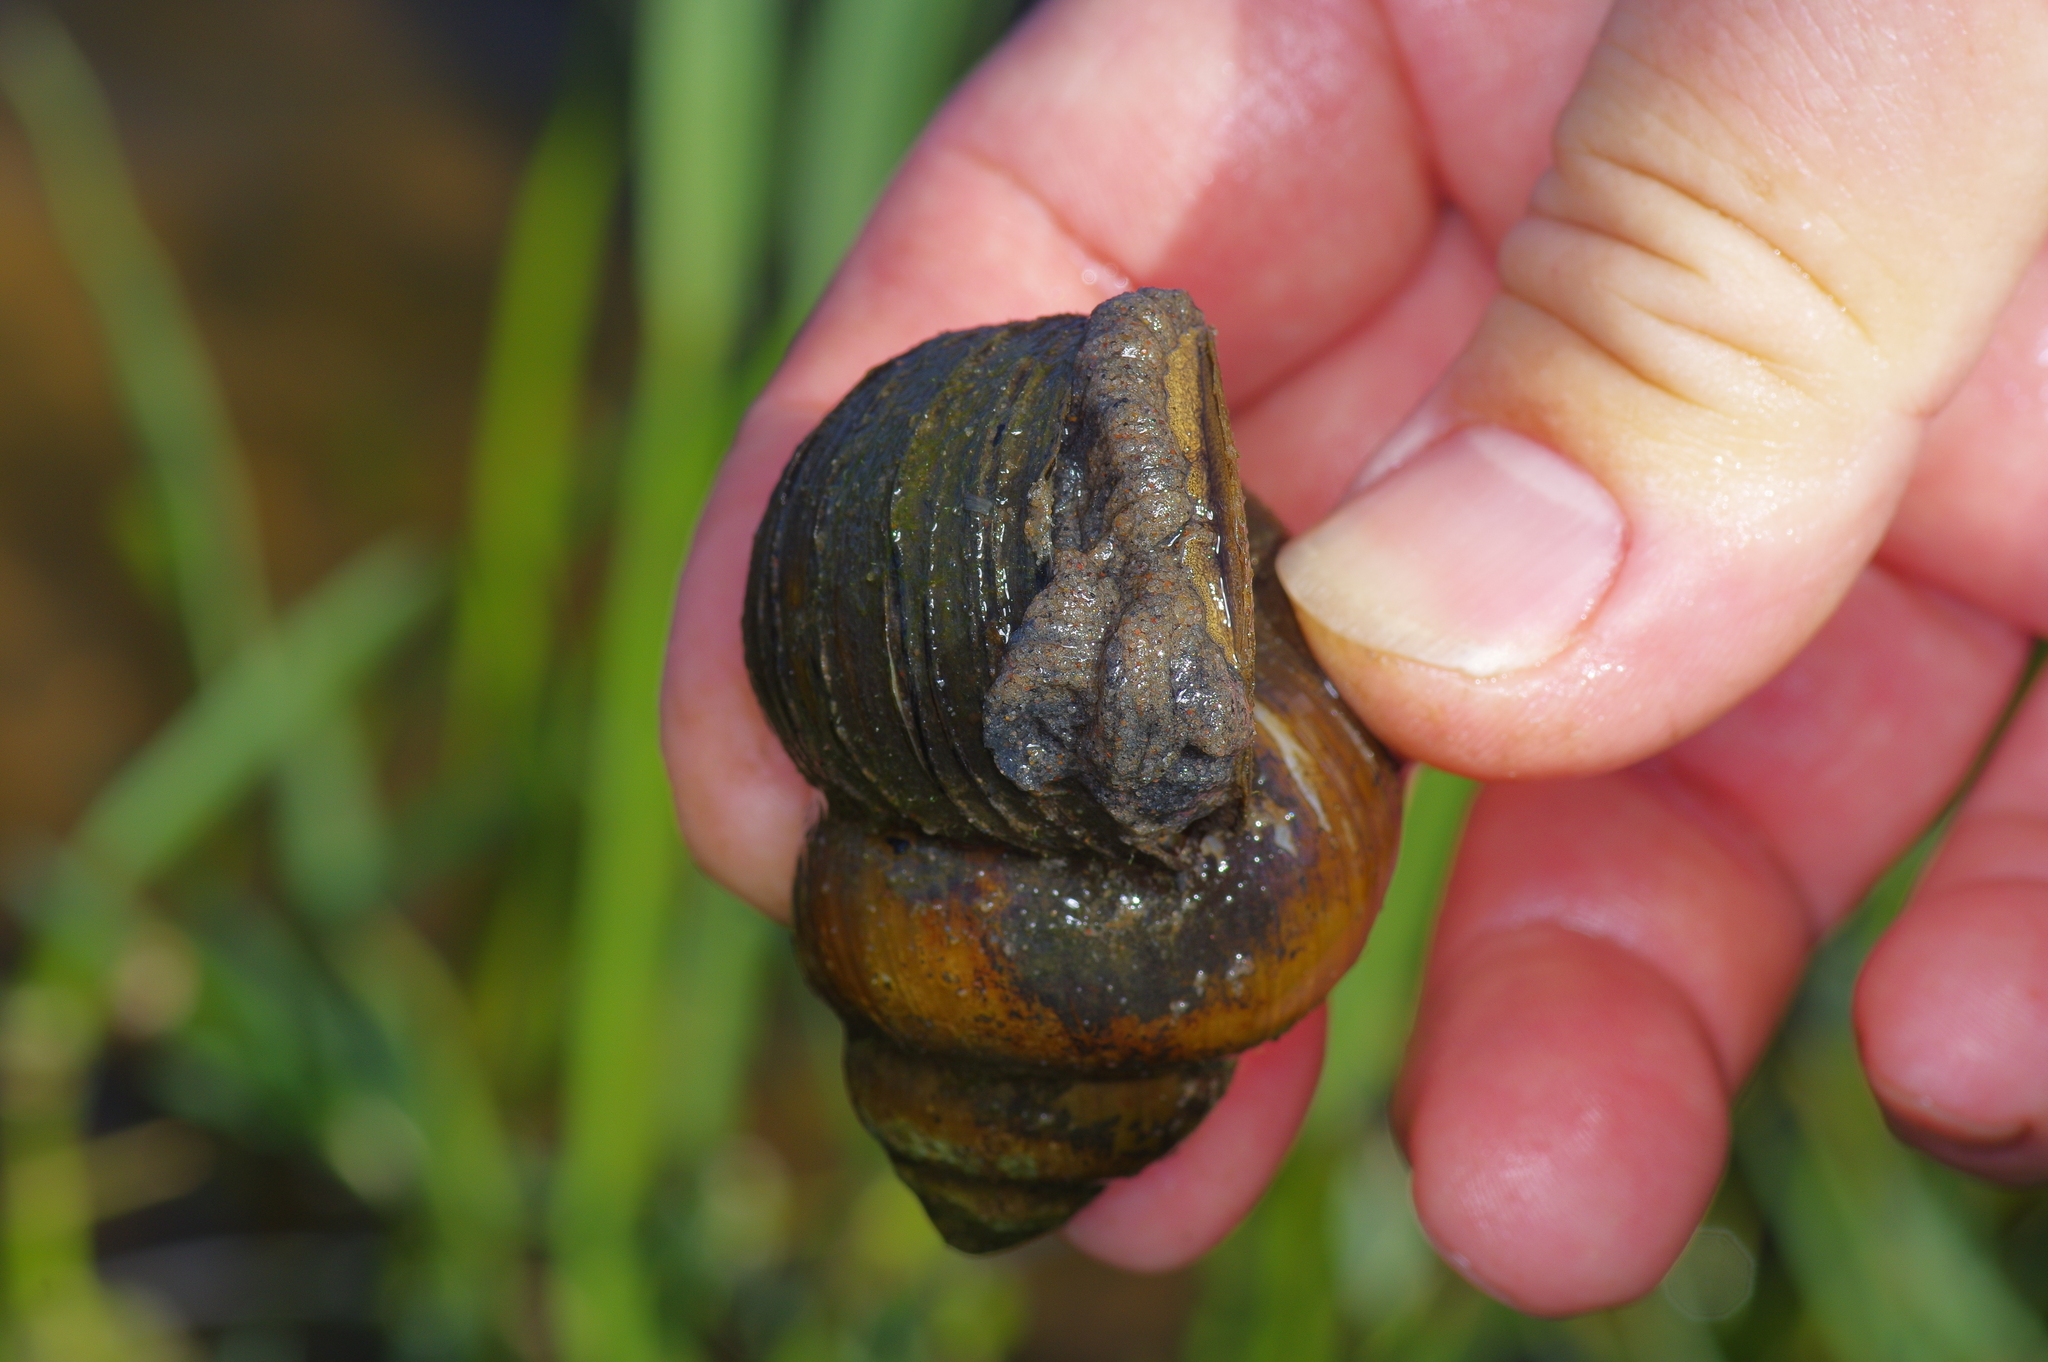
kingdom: Animalia
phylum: Mollusca
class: Gastropoda
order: Architaenioglossa
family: Viviparidae
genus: Cipangopaludina
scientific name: Cipangopaludina chinensis
